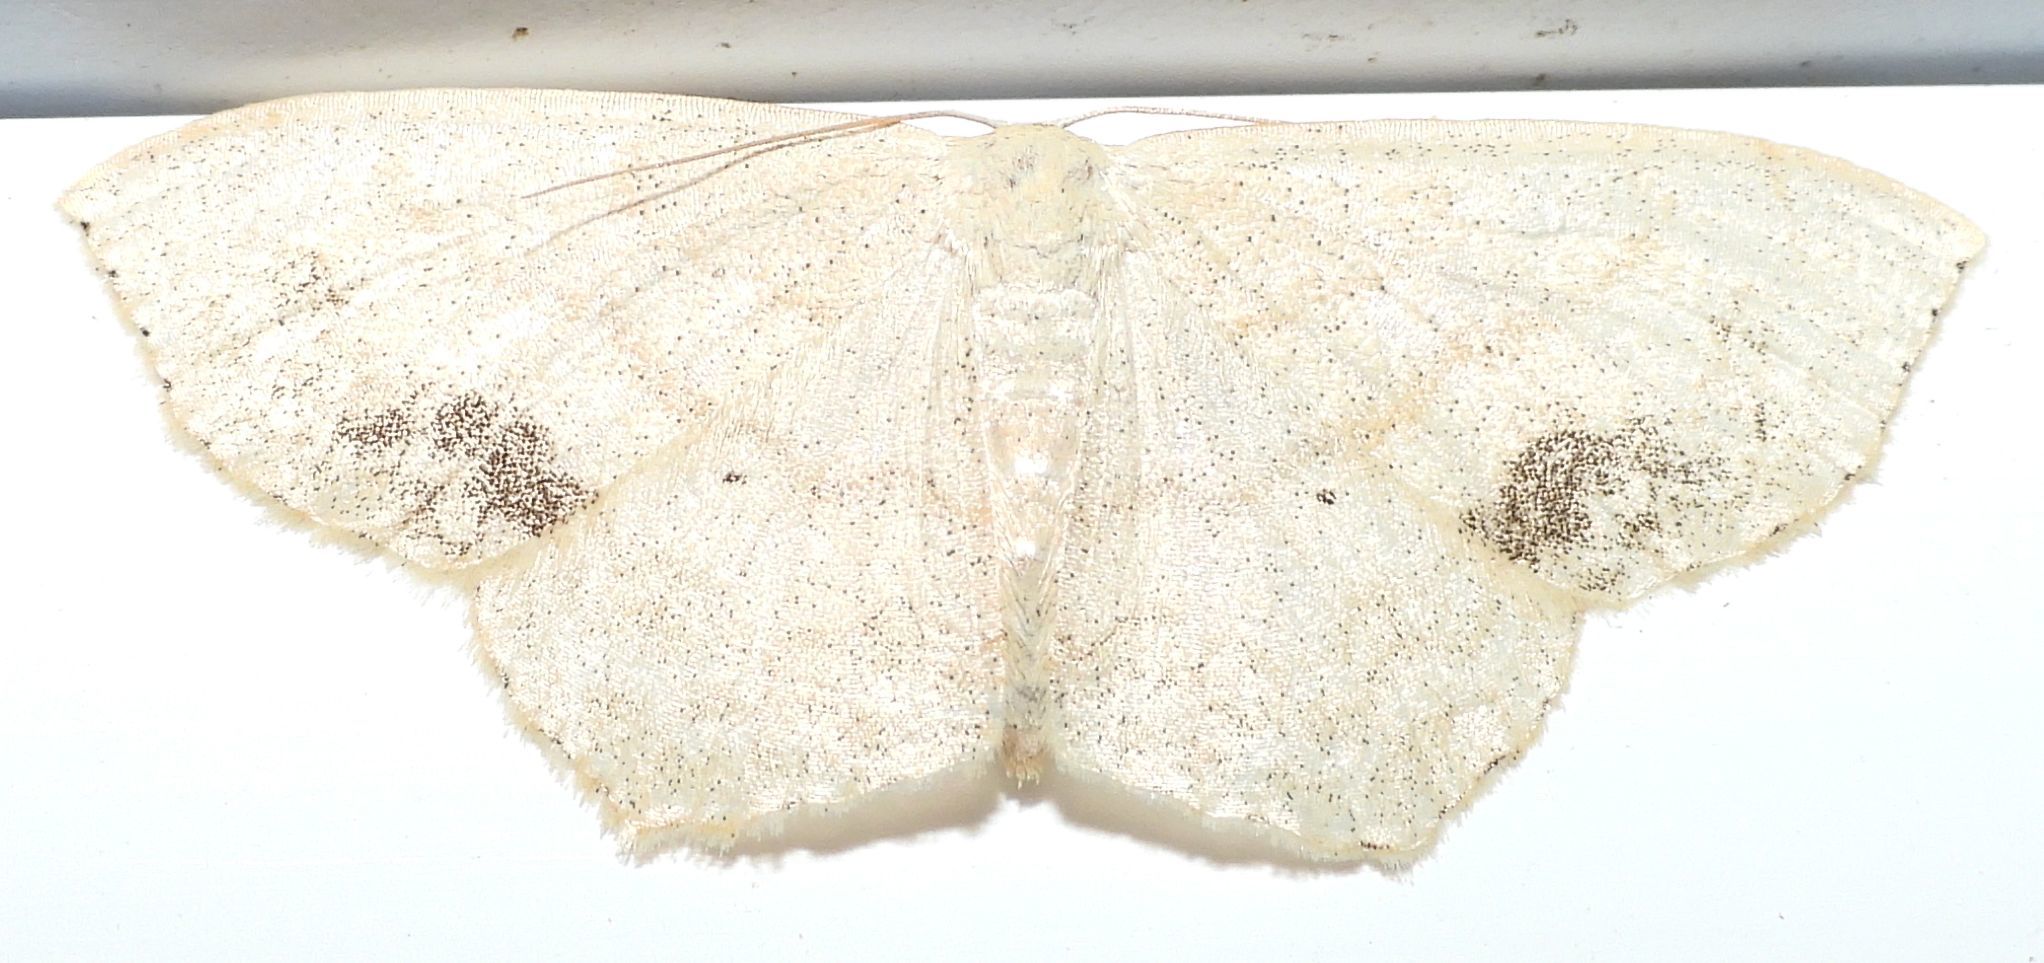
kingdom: Animalia
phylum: Arthropoda
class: Insecta
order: Lepidoptera
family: Geometridae
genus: Scopula
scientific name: Scopula limboundata
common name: Large lace border
